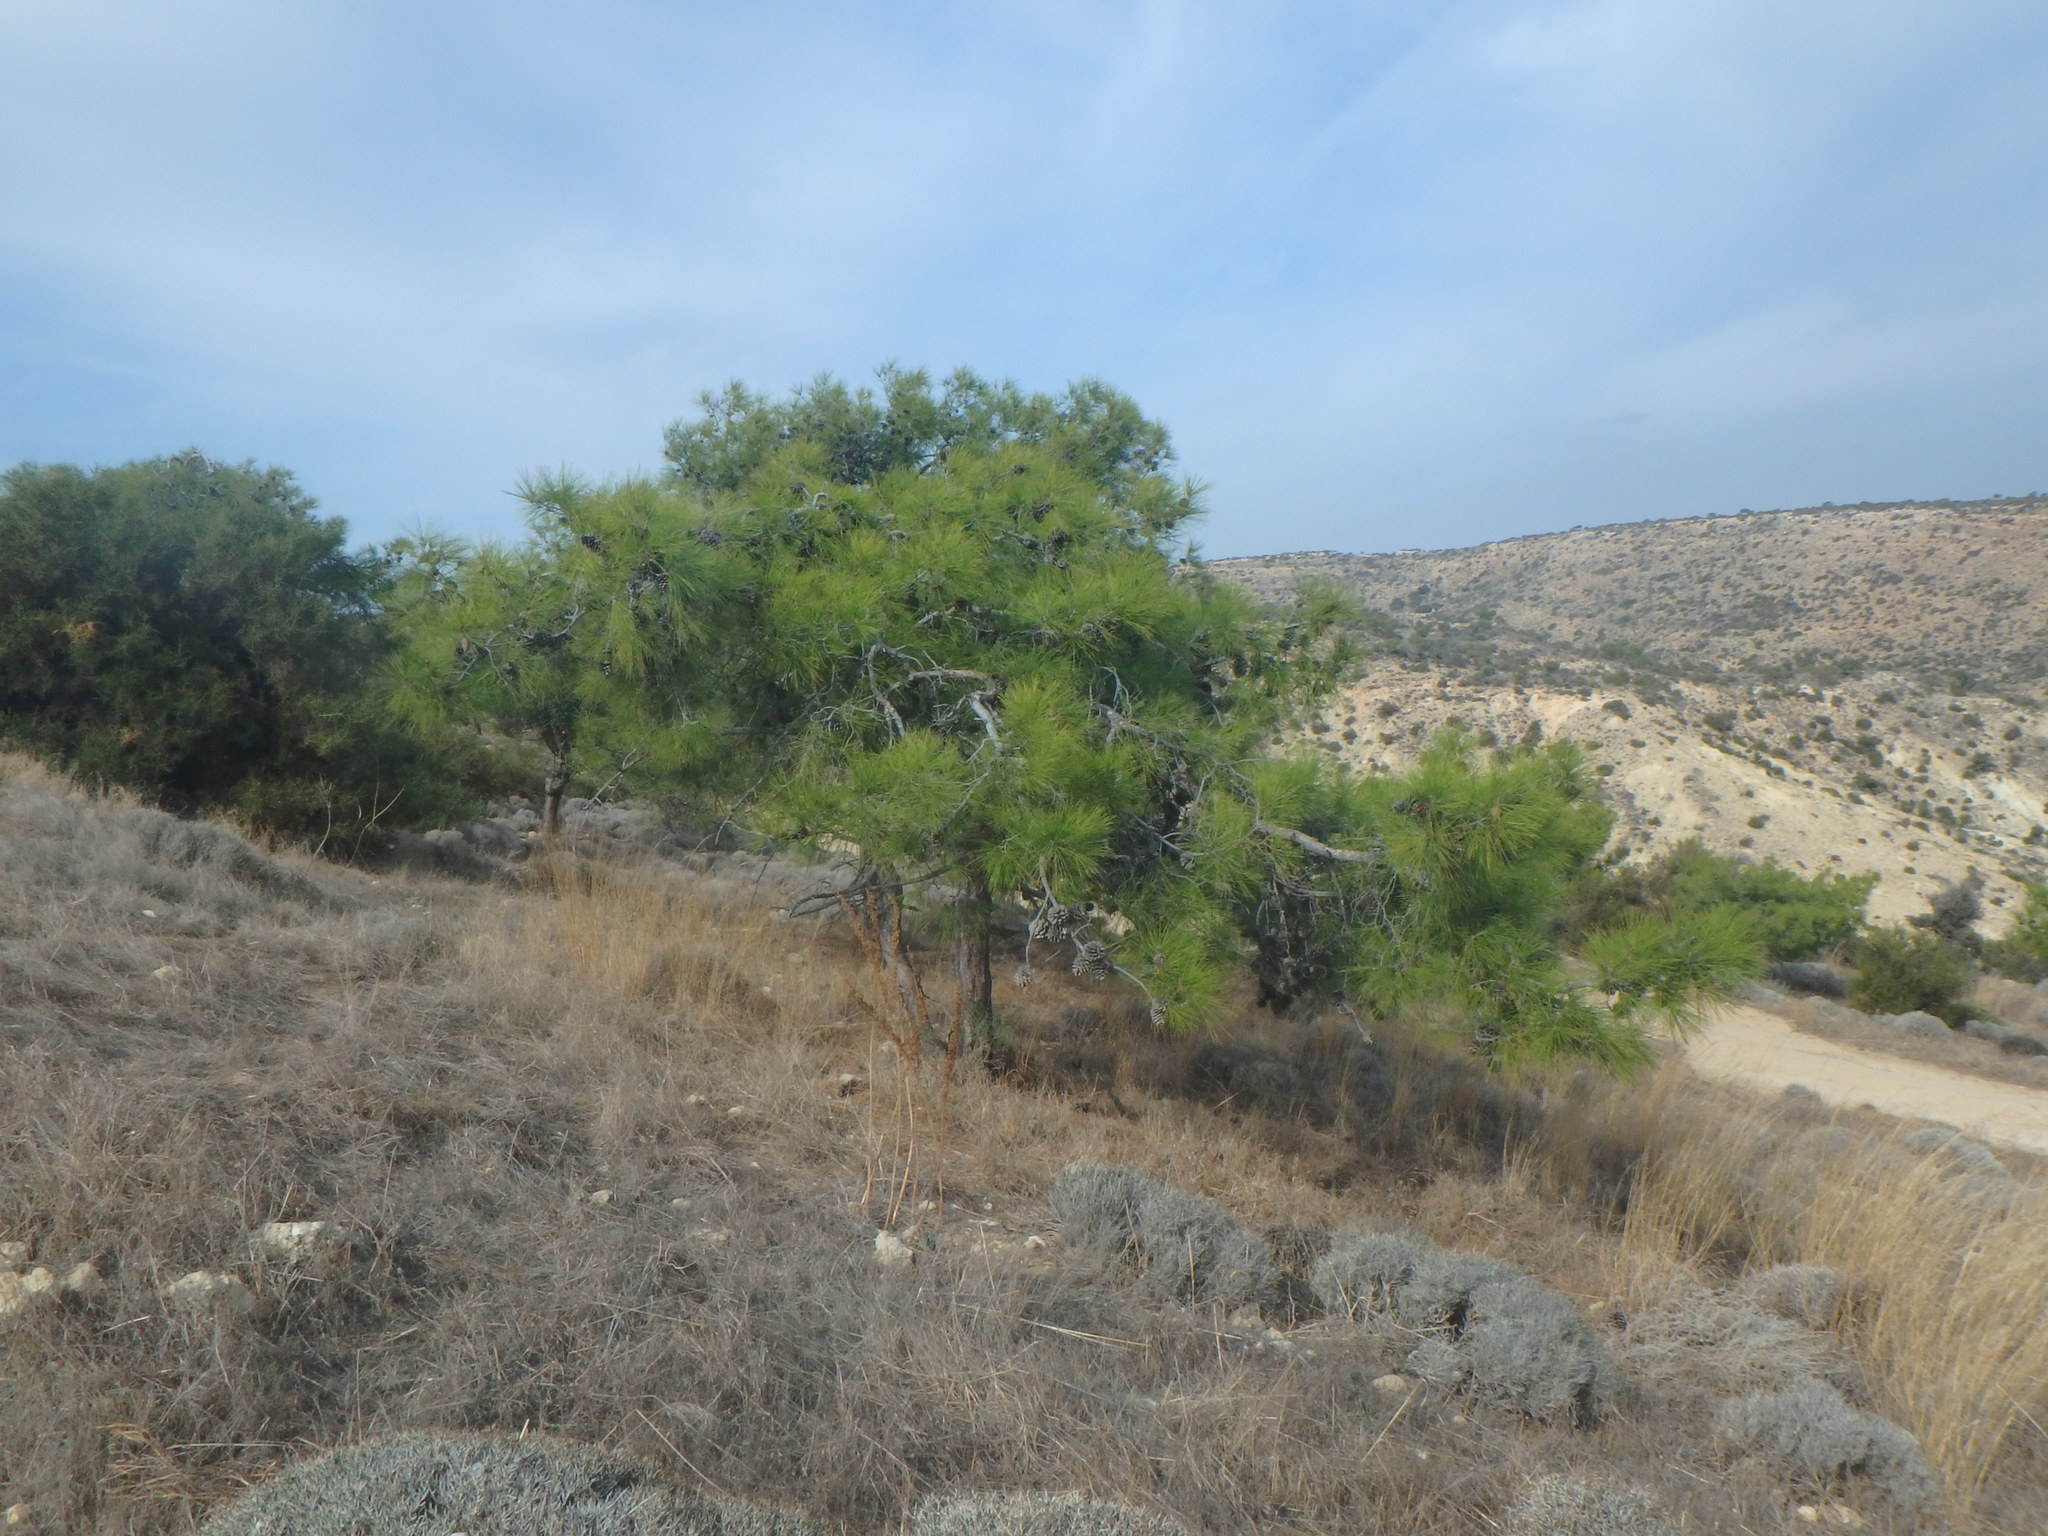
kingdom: Plantae
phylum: Tracheophyta
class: Pinopsida
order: Pinales
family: Pinaceae
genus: Pinus
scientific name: Pinus brutia
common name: Turkish pine
